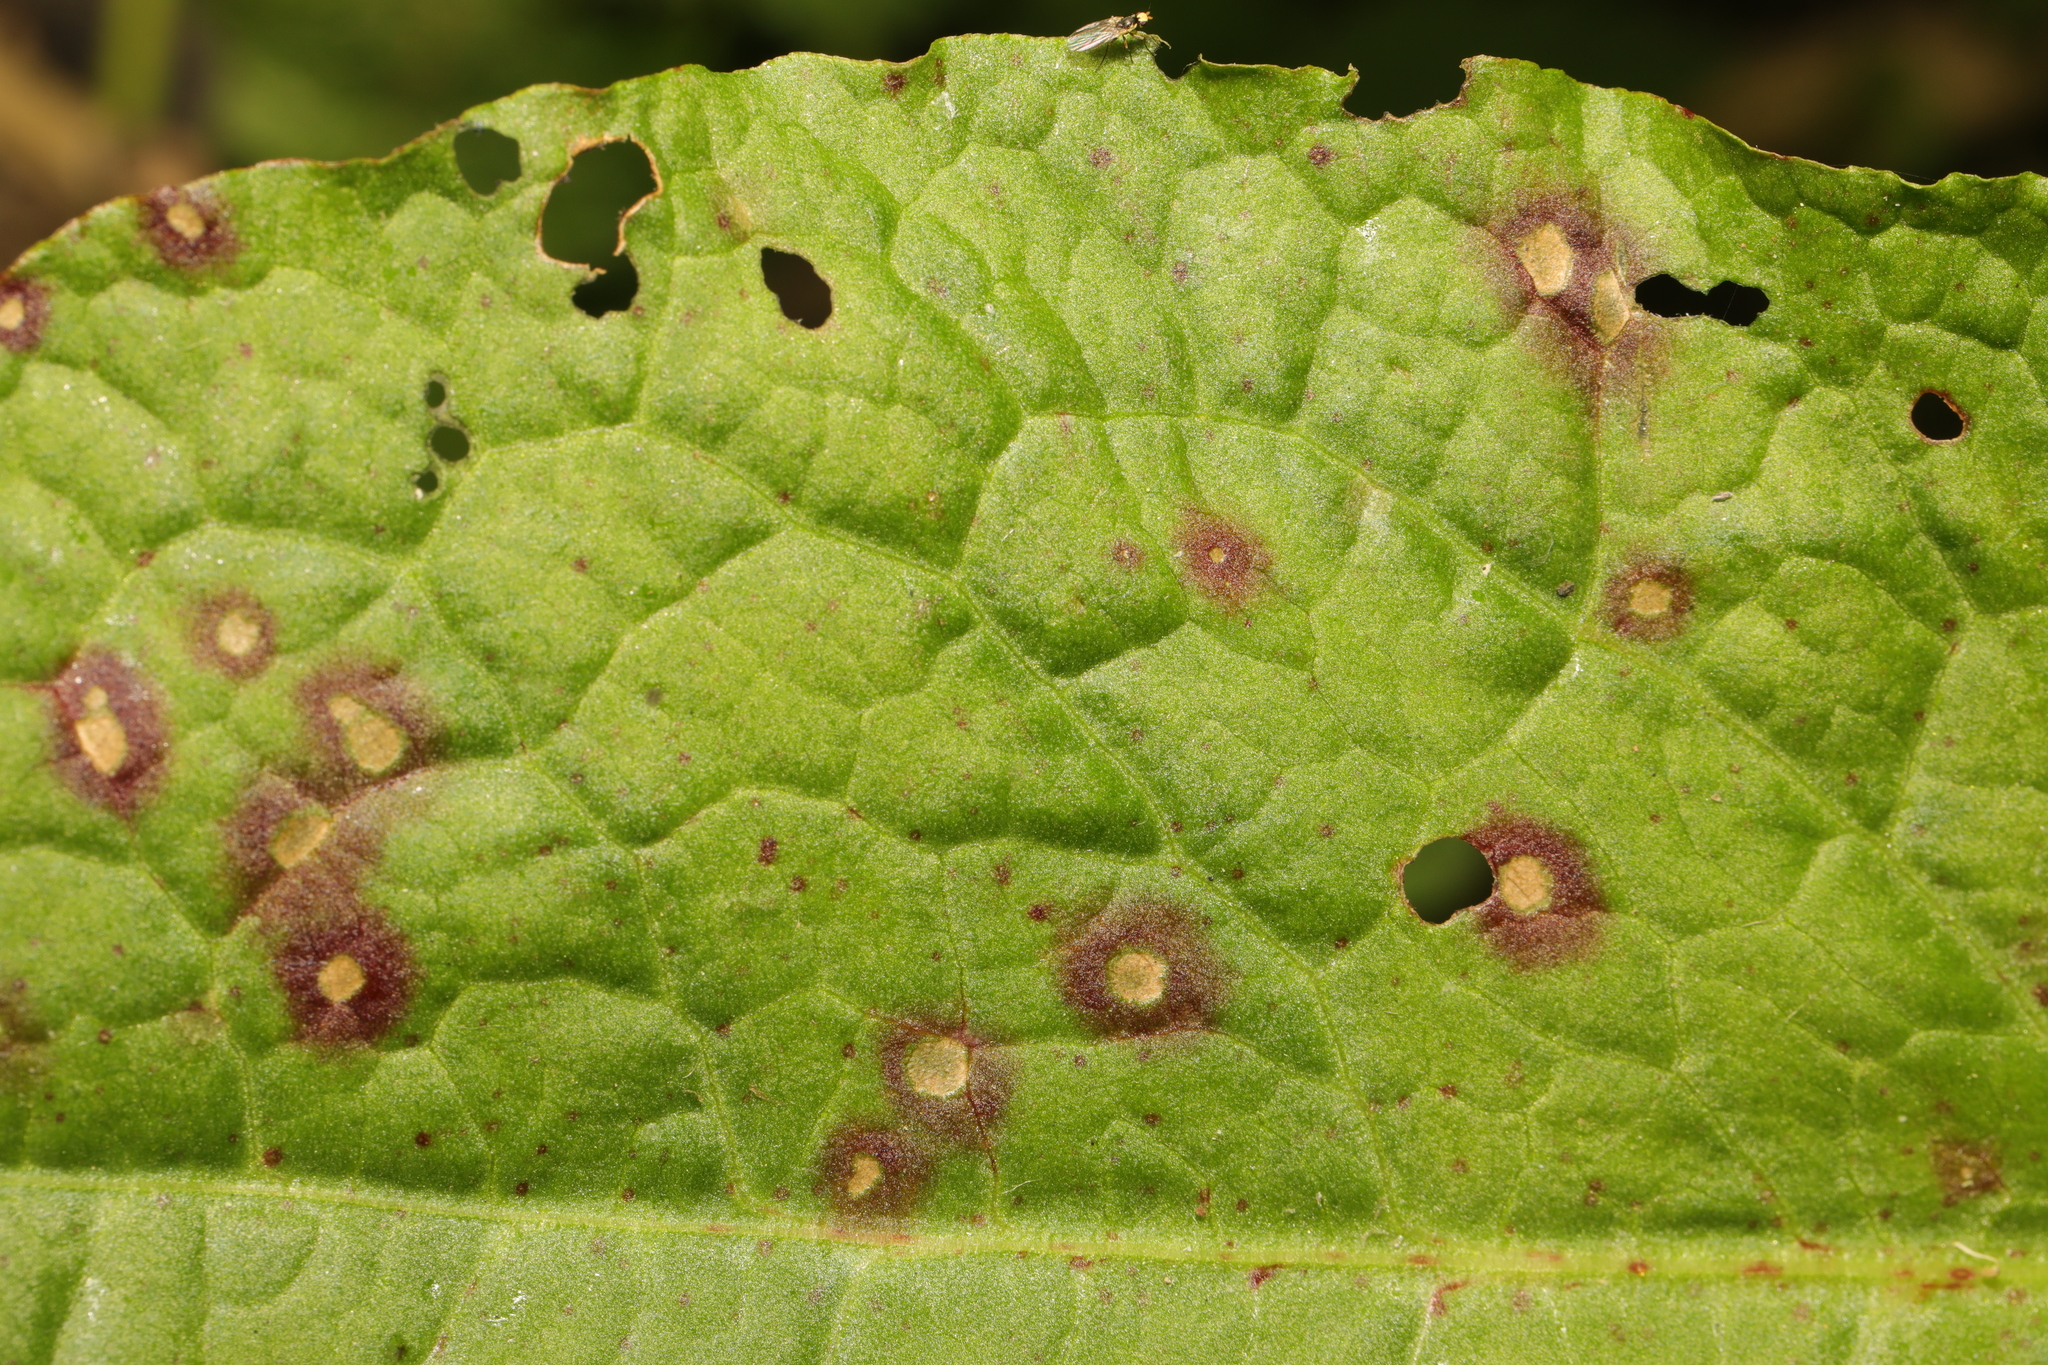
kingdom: Fungi
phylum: Ascomycota
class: Dothideomycetes
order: Mycosphaerellales
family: Mycosphaerellaceae
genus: Ramularia
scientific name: Ramularia rubella
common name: Red dock spot
